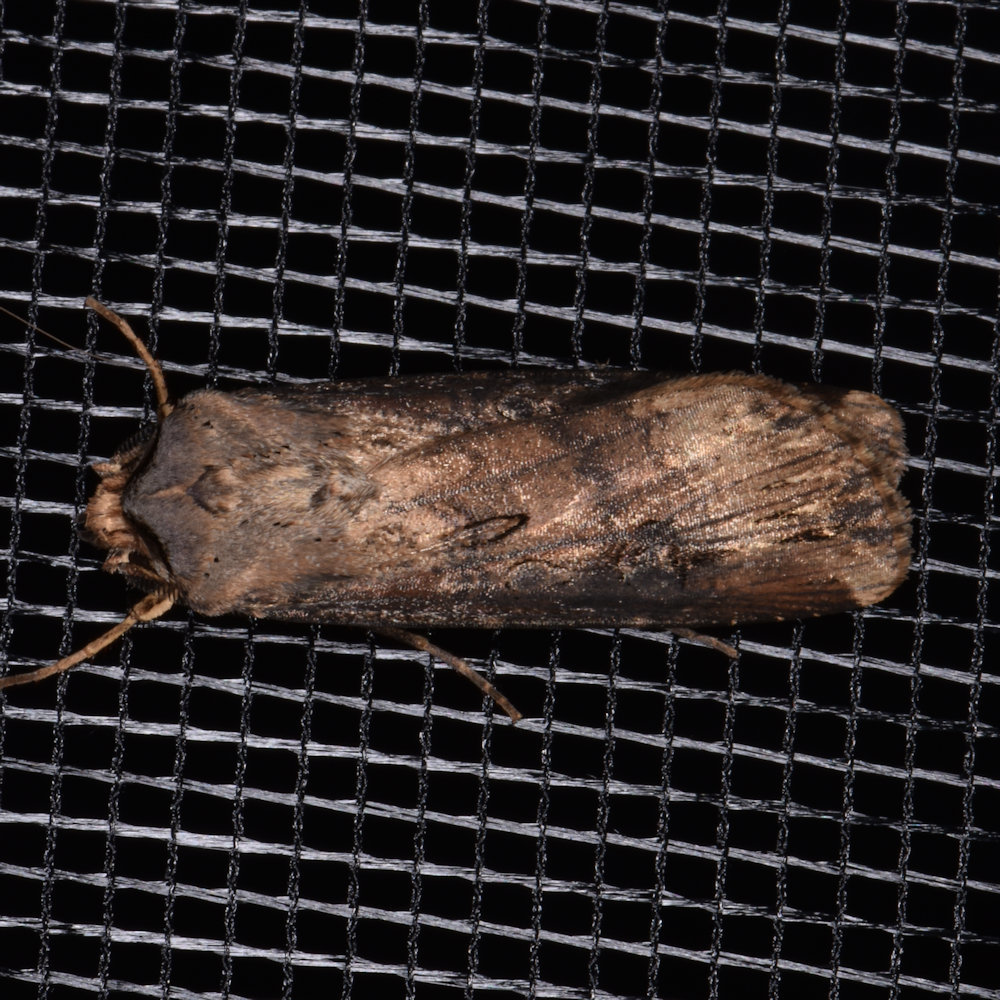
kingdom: Animalia
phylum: Arthropoda
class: Insecta
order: Lepidoptera
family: Noctuidae
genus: Agrotis
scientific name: Agrotis ipsilon
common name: Dark sword-grass
